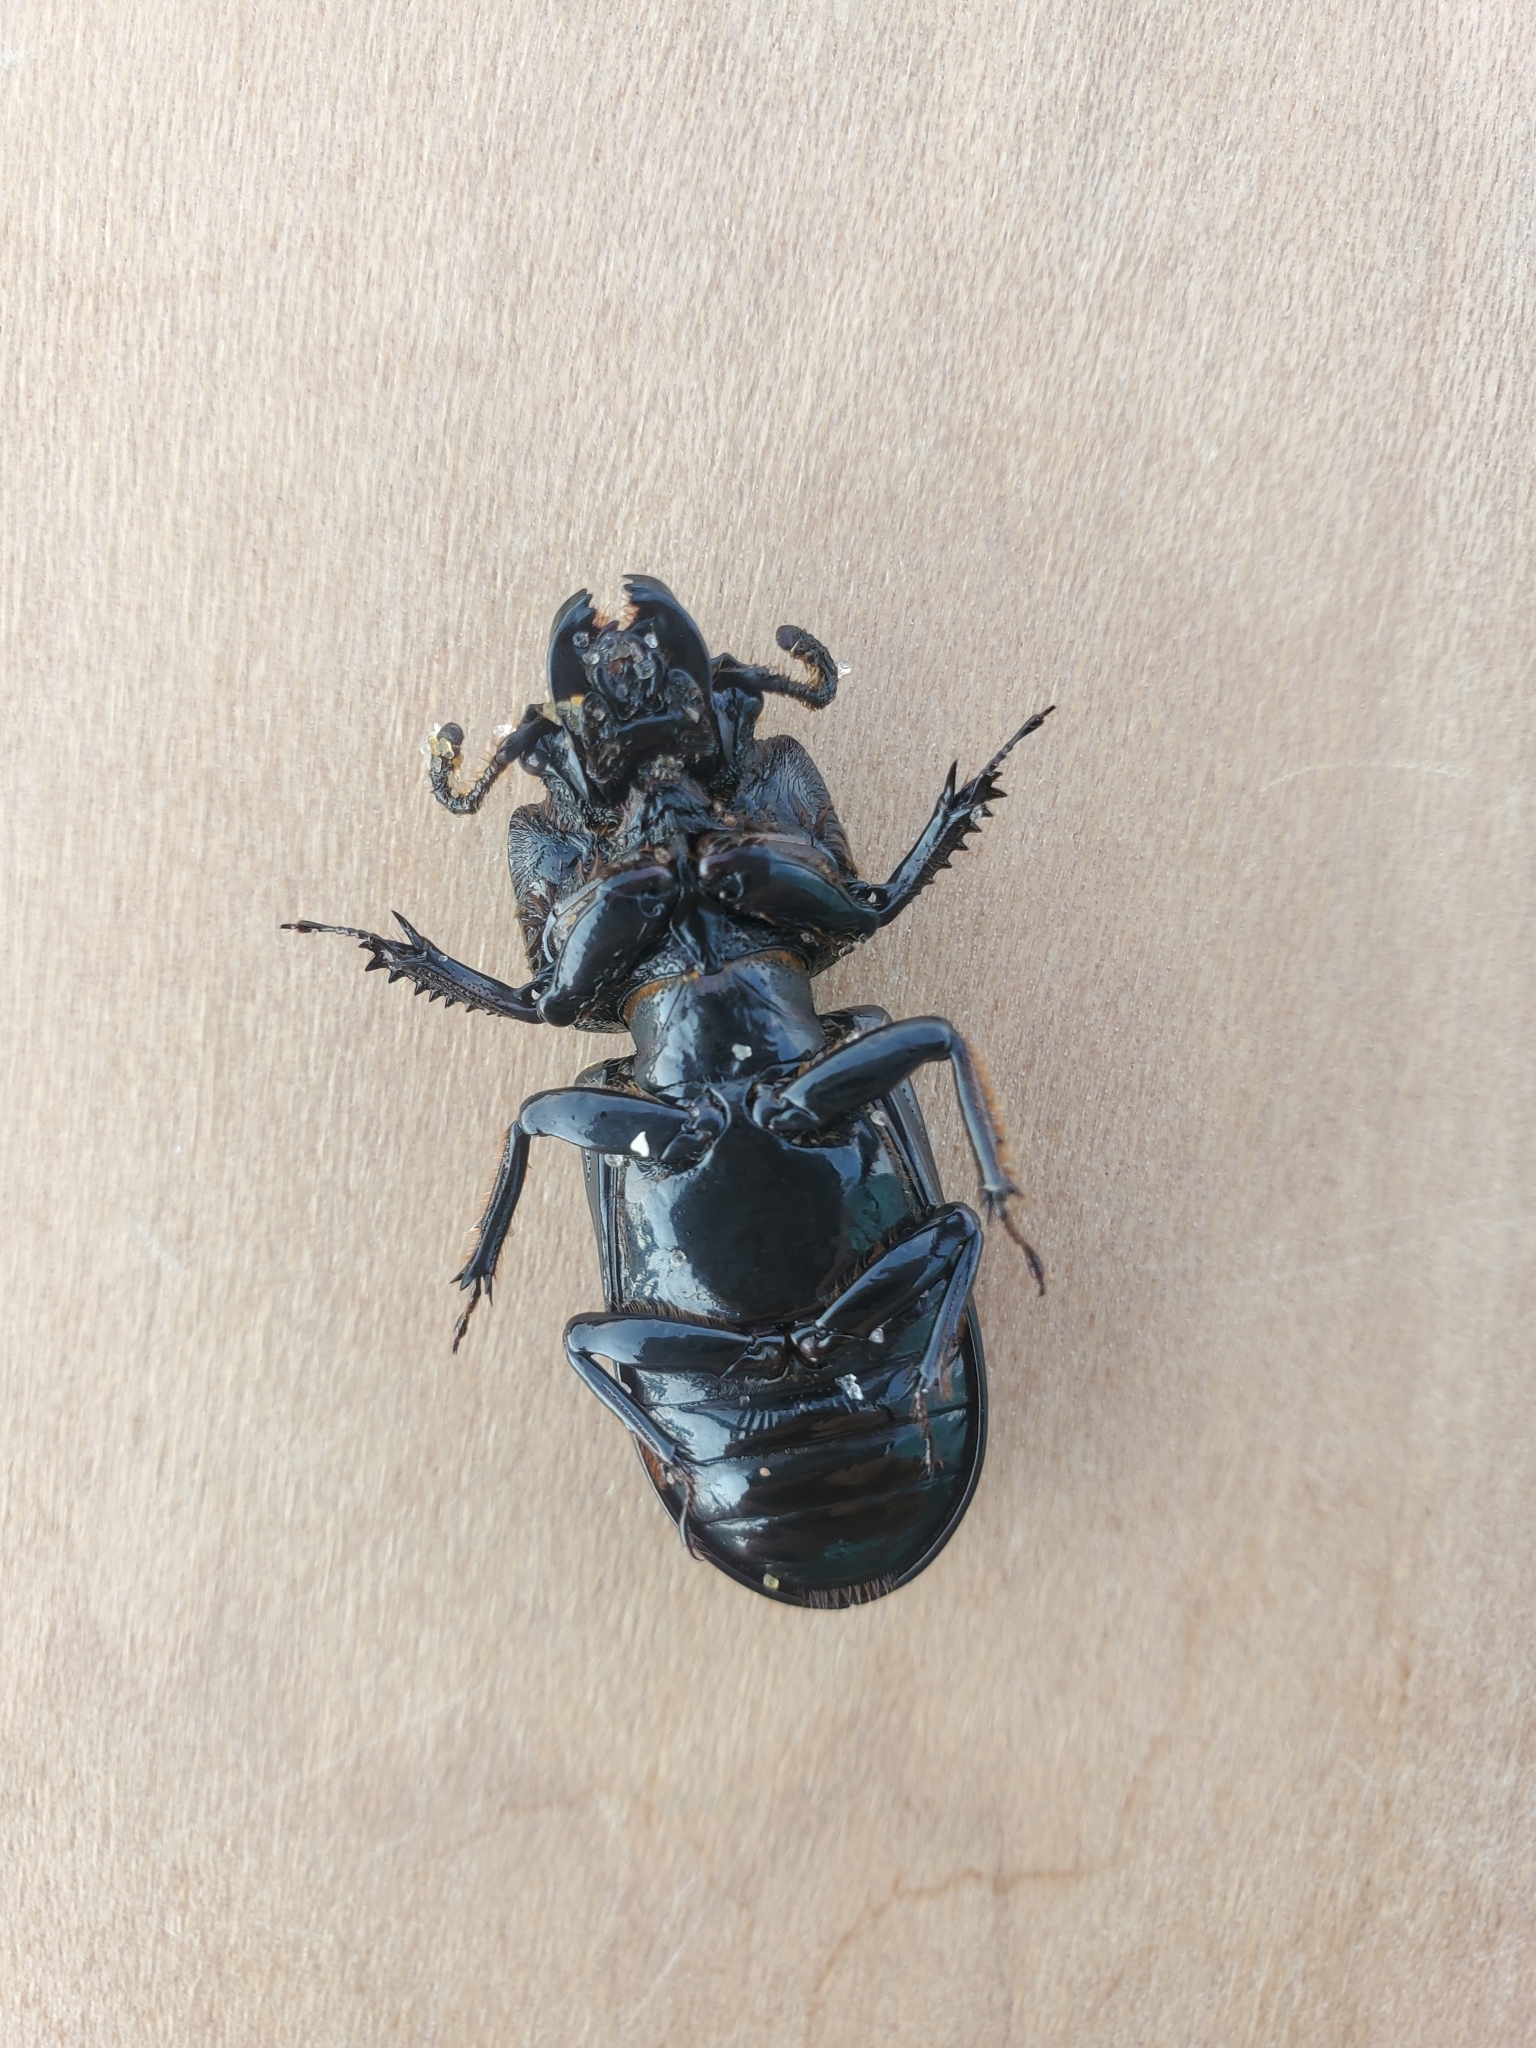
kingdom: Animalia
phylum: Arthropoda
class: Insecta
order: Coleoptera
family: Passalidae
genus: Odontotaenius
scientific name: Odontotaenius disjunctus
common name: Patent leather beetle
